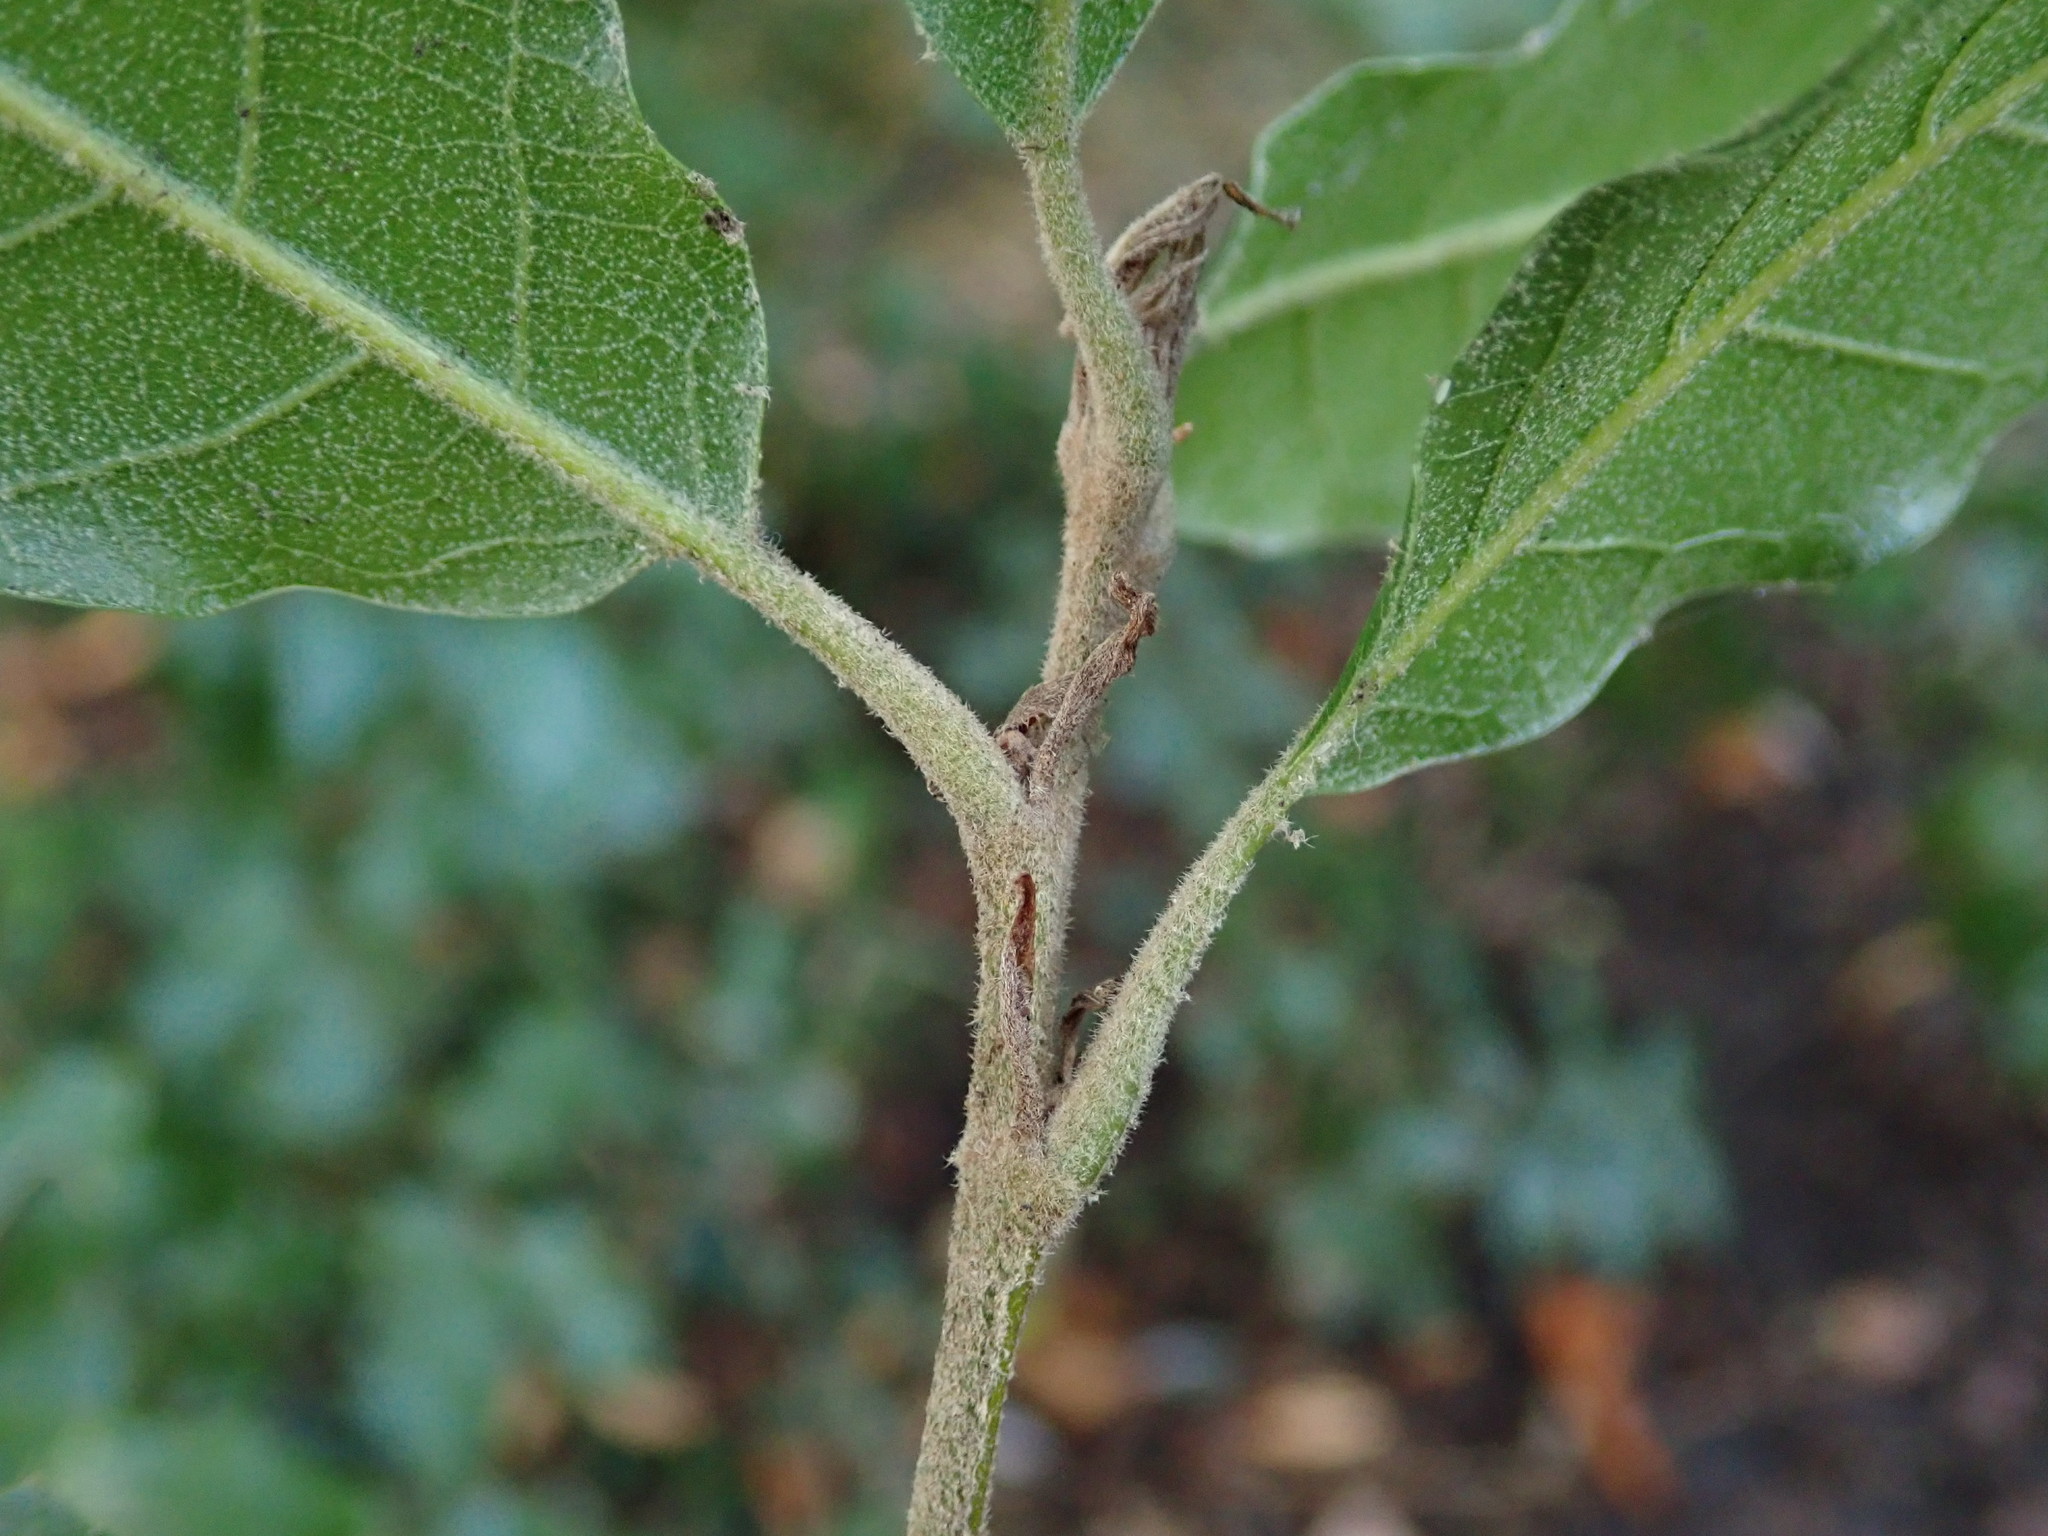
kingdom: Plantae
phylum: Tracheophyta
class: Magnoliopsida
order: Fagales
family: Fagaceae
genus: Quercus
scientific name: Quercus ilex
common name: Evergreen oak
